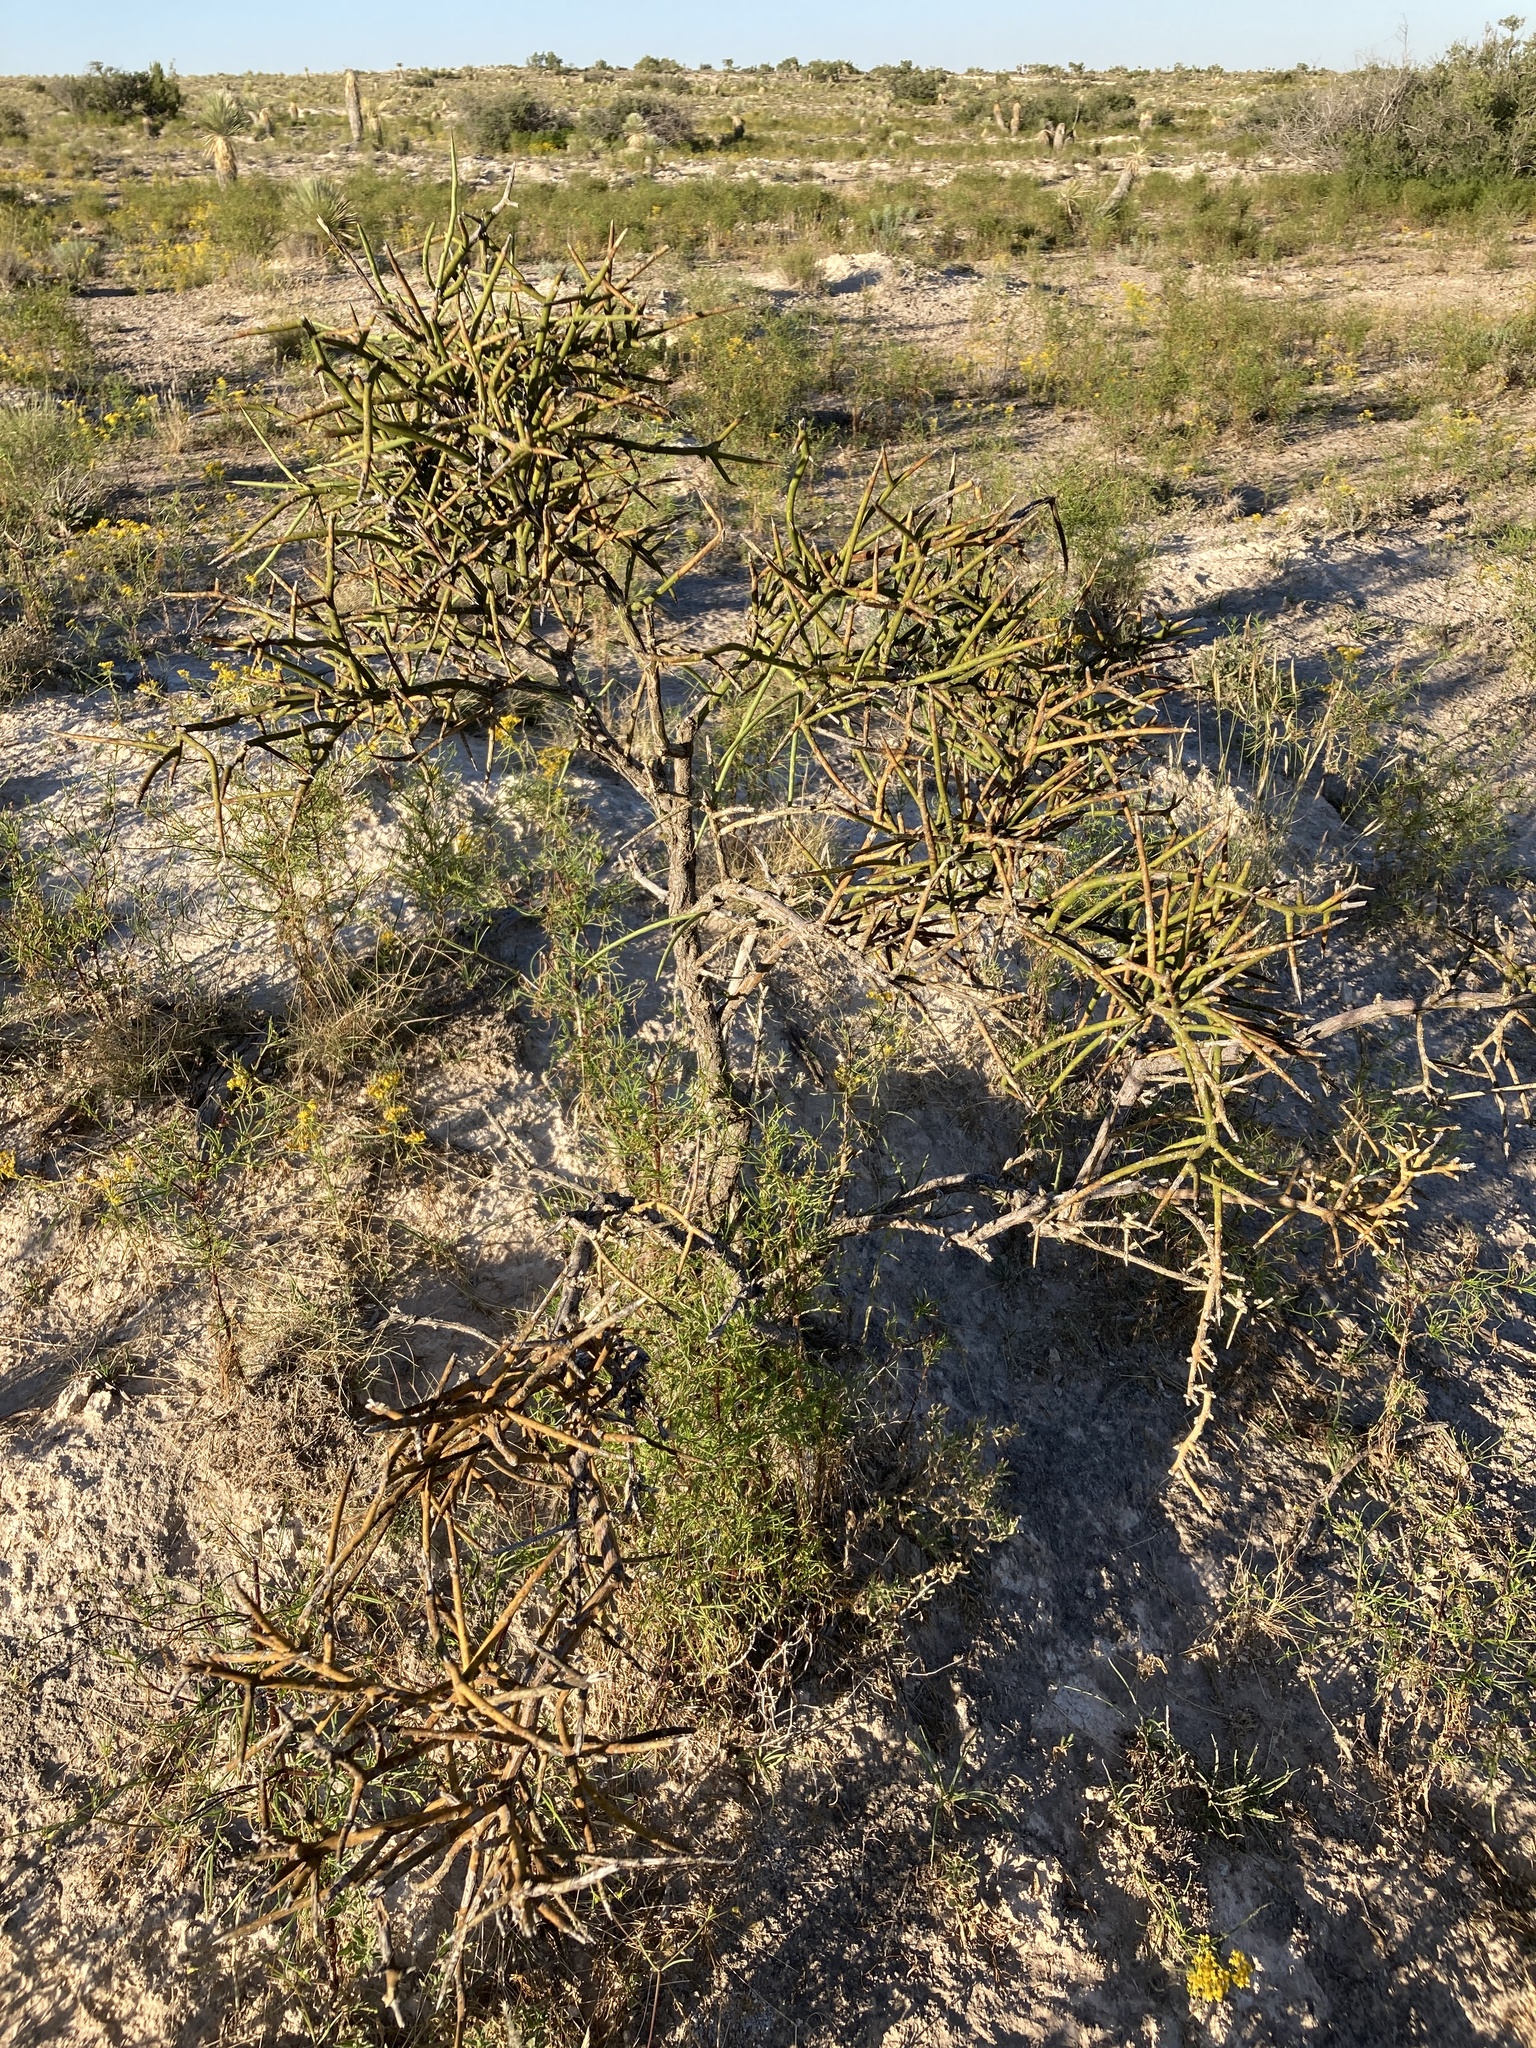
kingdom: Plantae
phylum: Tracheophyta
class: Magnoliopsida
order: Brassicales
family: Koeberliniaceae
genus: Koeberlinia
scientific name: Koeberlinia spinosa
